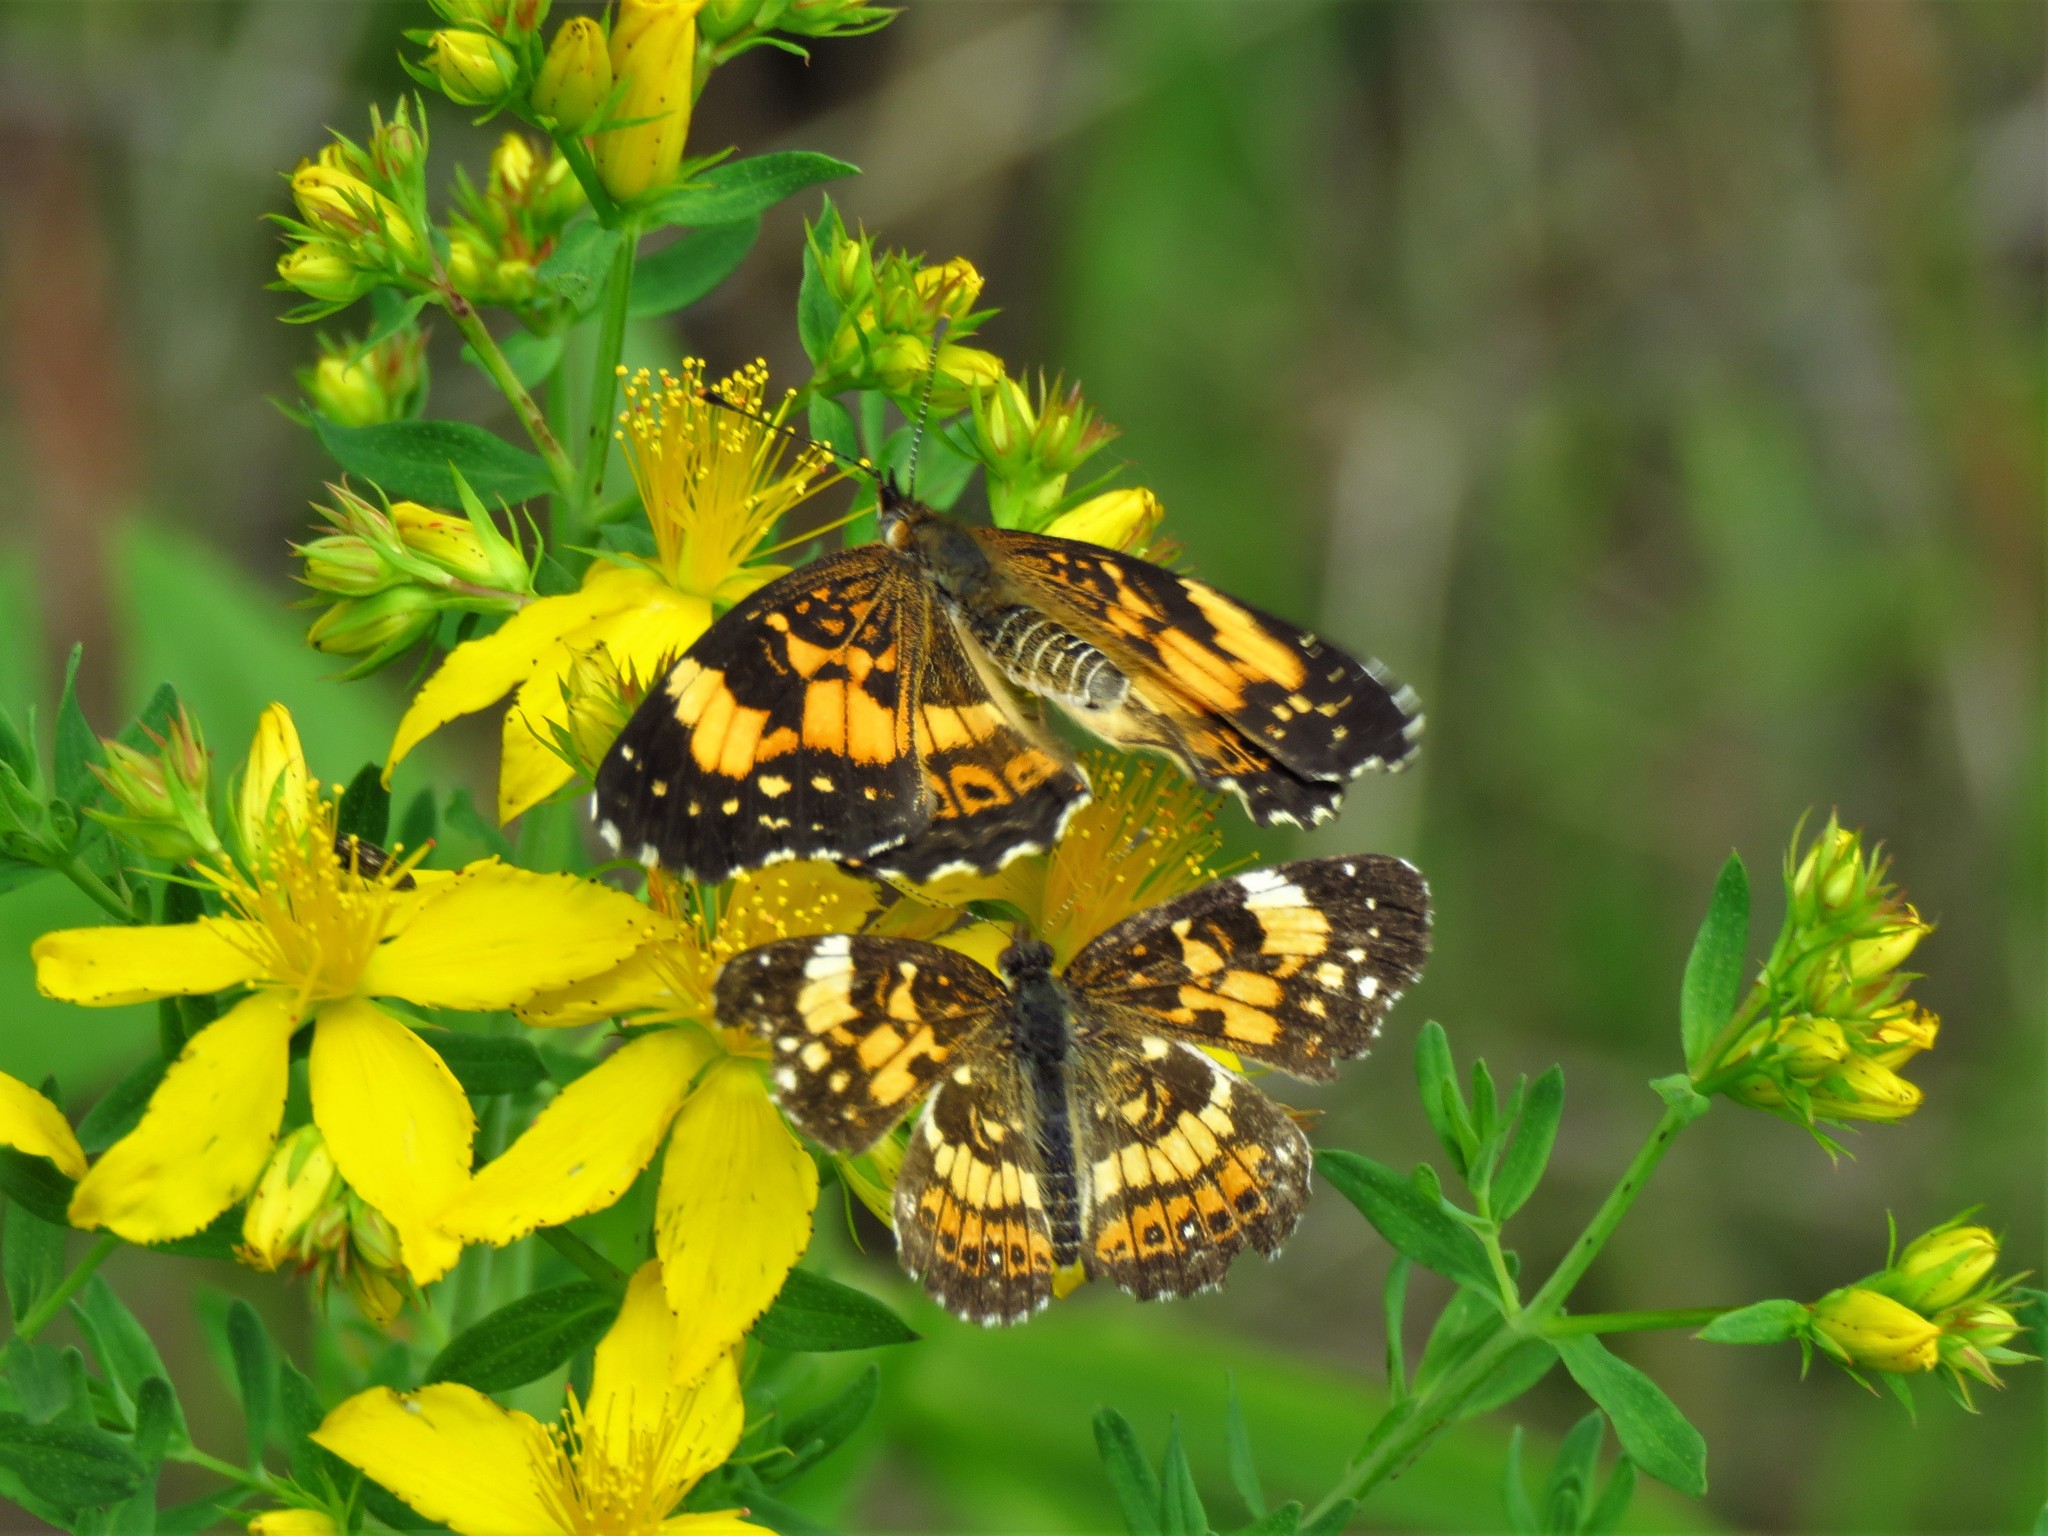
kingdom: Animalia
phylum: Arthropoda
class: Insecta
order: Lepidoptera
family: Nymphalidae
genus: Chlosyne
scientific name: Chlosyne nycteis
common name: Silvery checkerspot
